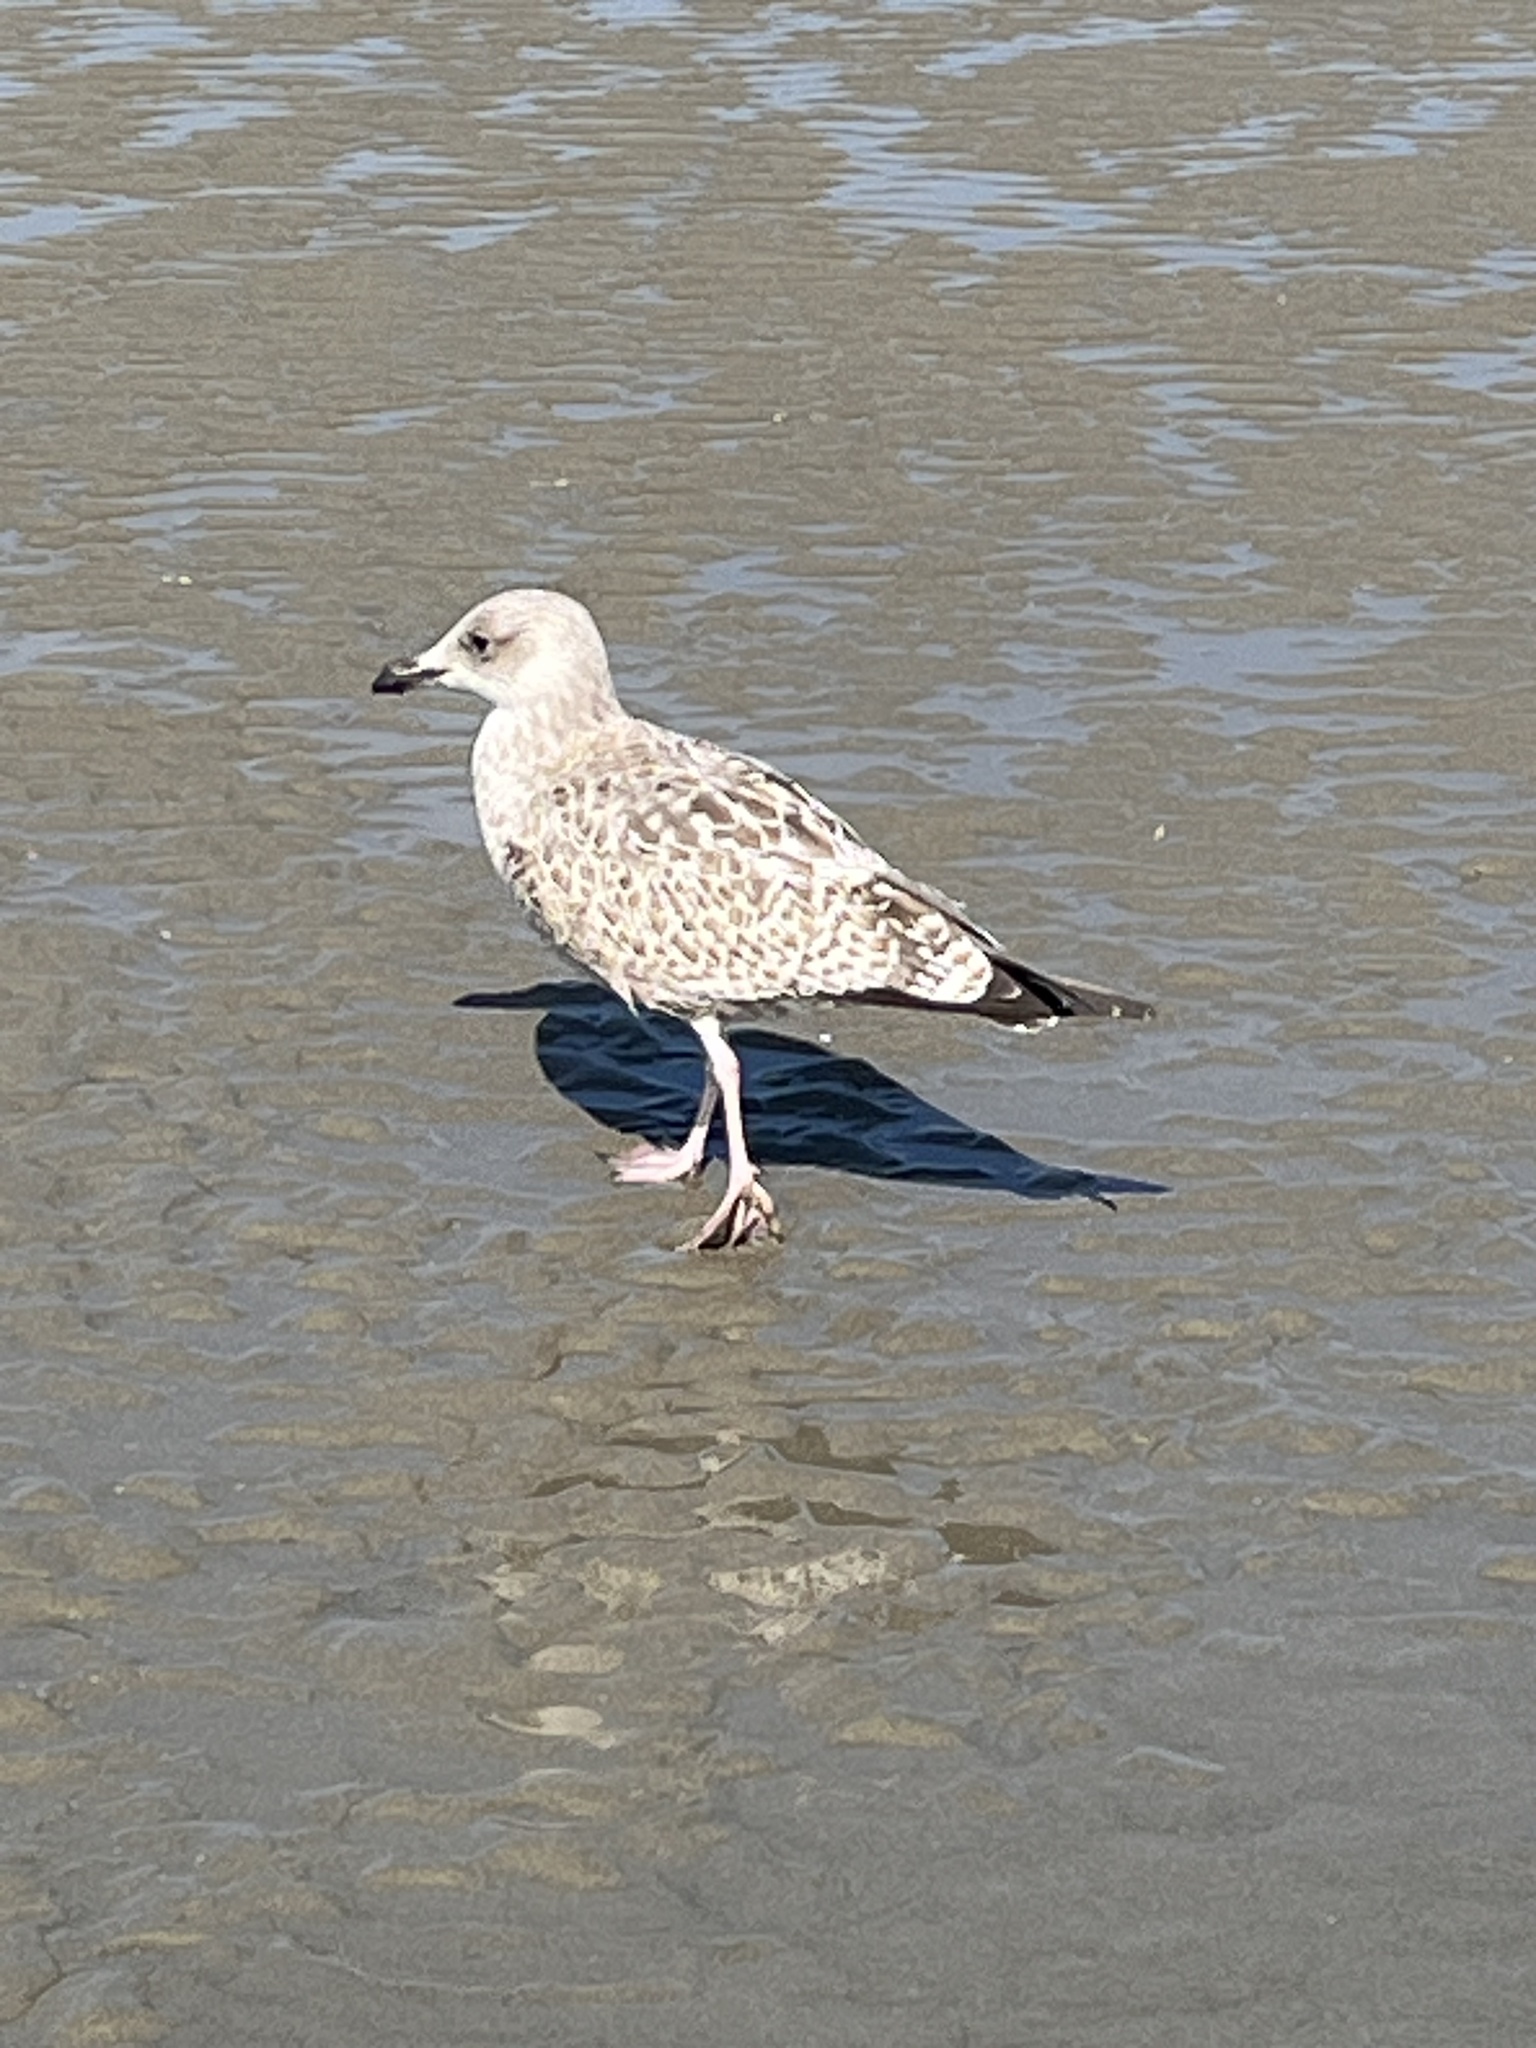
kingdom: Animalia
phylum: Chordata
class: Aves
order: Charadriiformes
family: Laridae
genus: Larus
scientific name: Larus argentatus
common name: Herring gull
